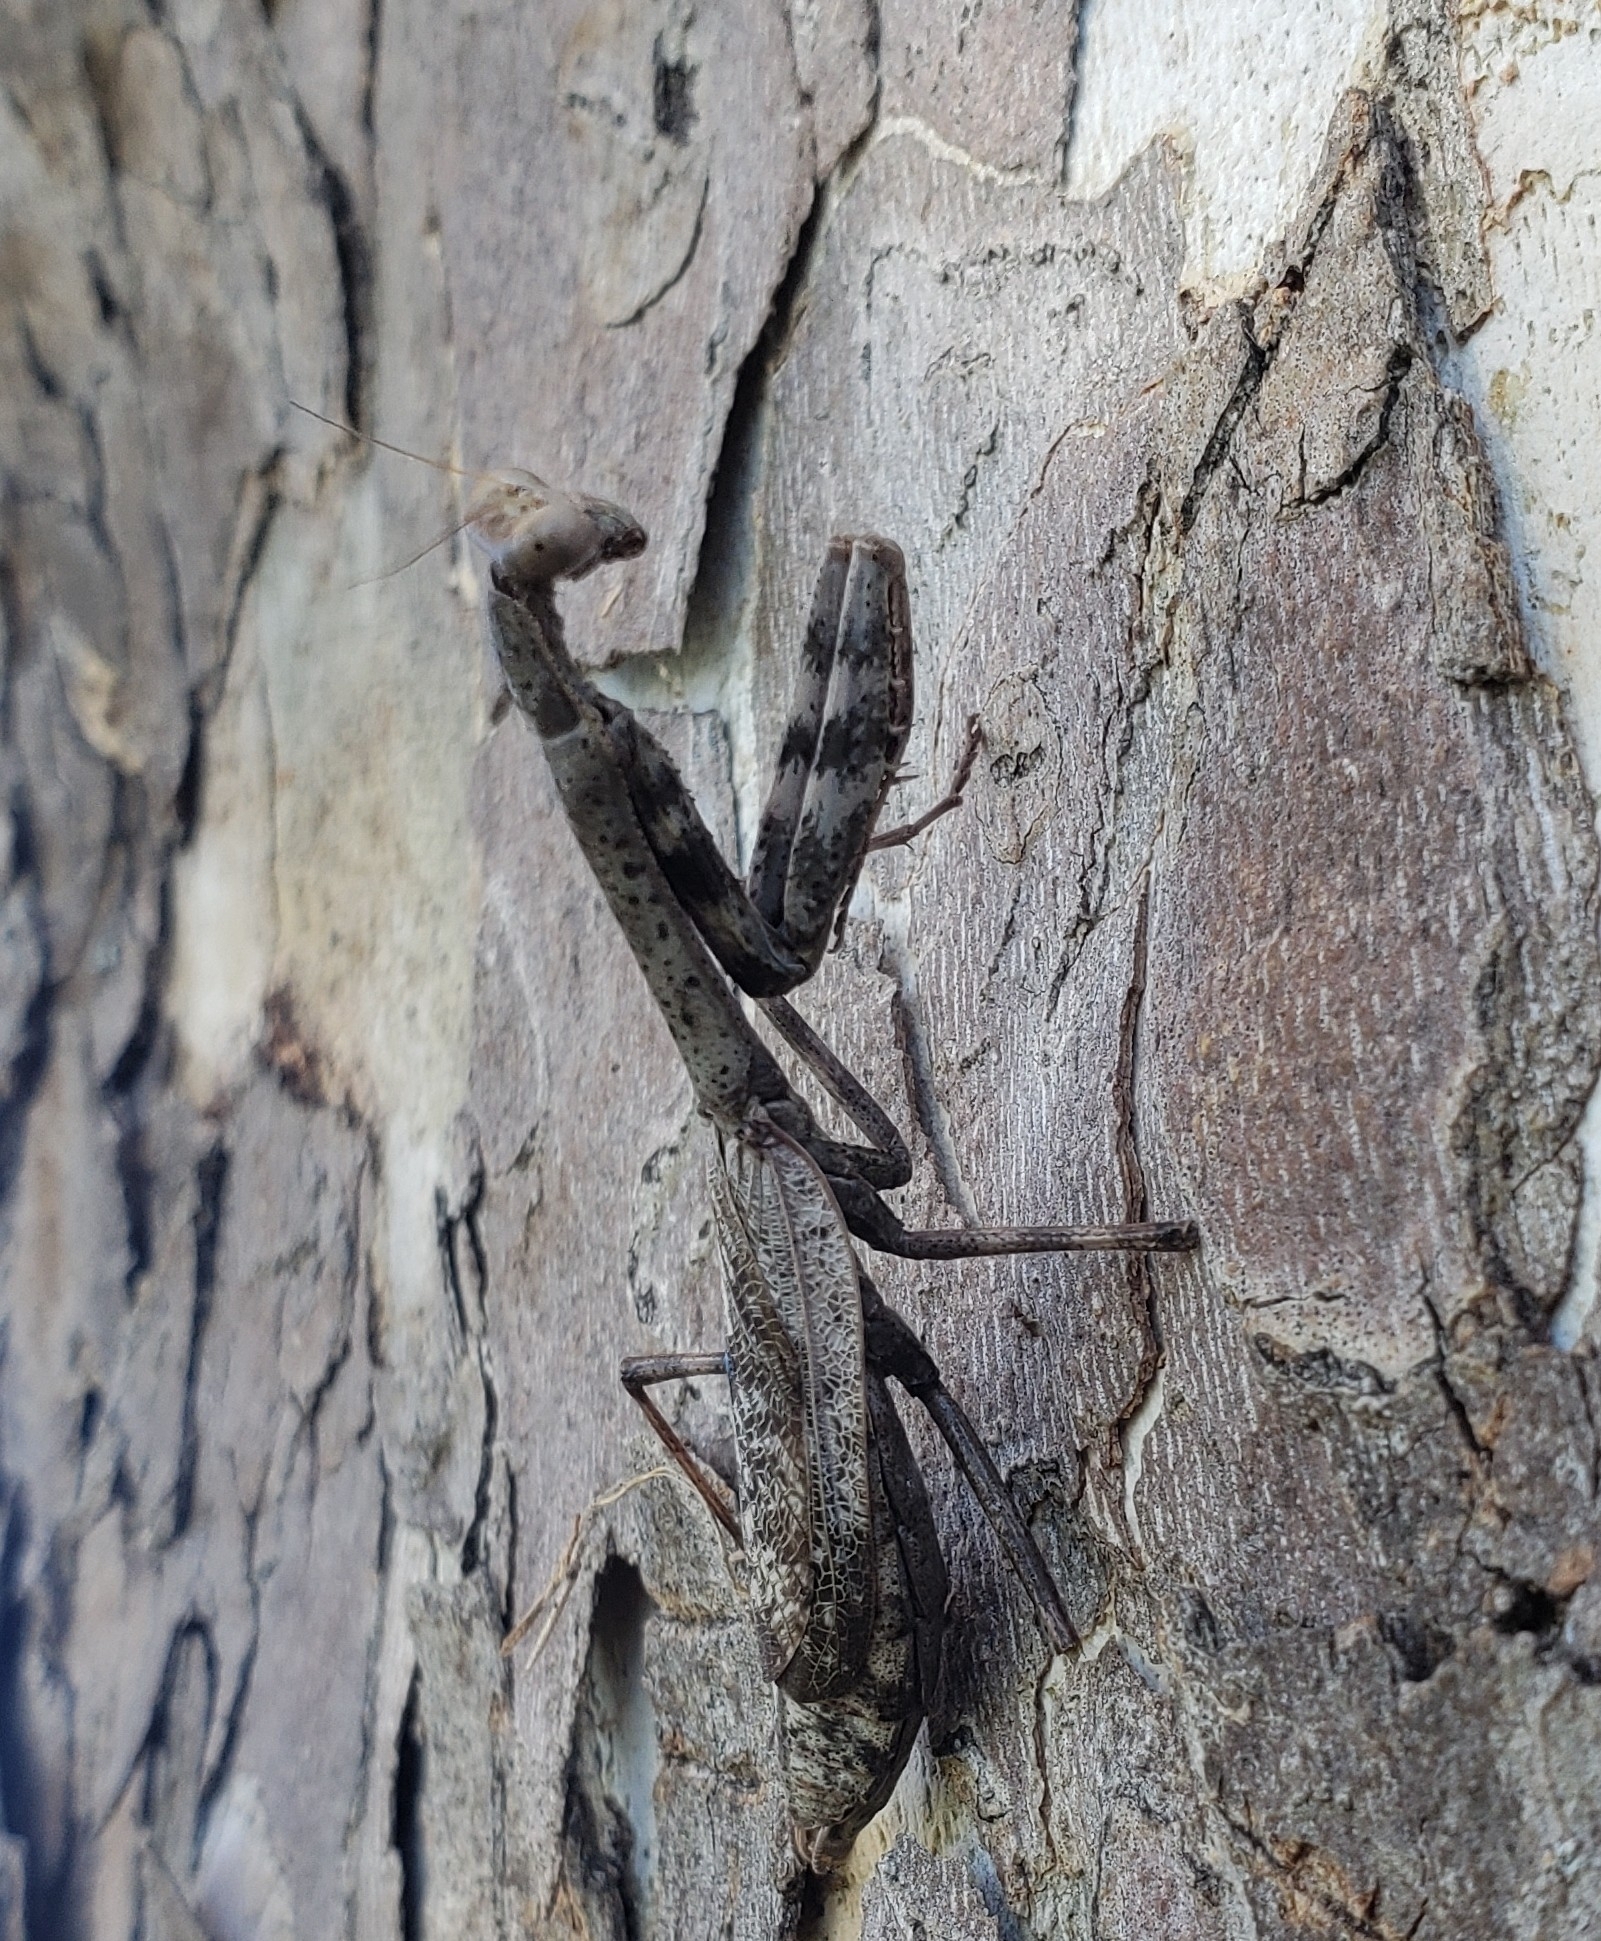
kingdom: Animalia
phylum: Arthropoda
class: Insecta
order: Mantodea
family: Mantidae
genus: Stagmomantis
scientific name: Stagmomantis carolina
